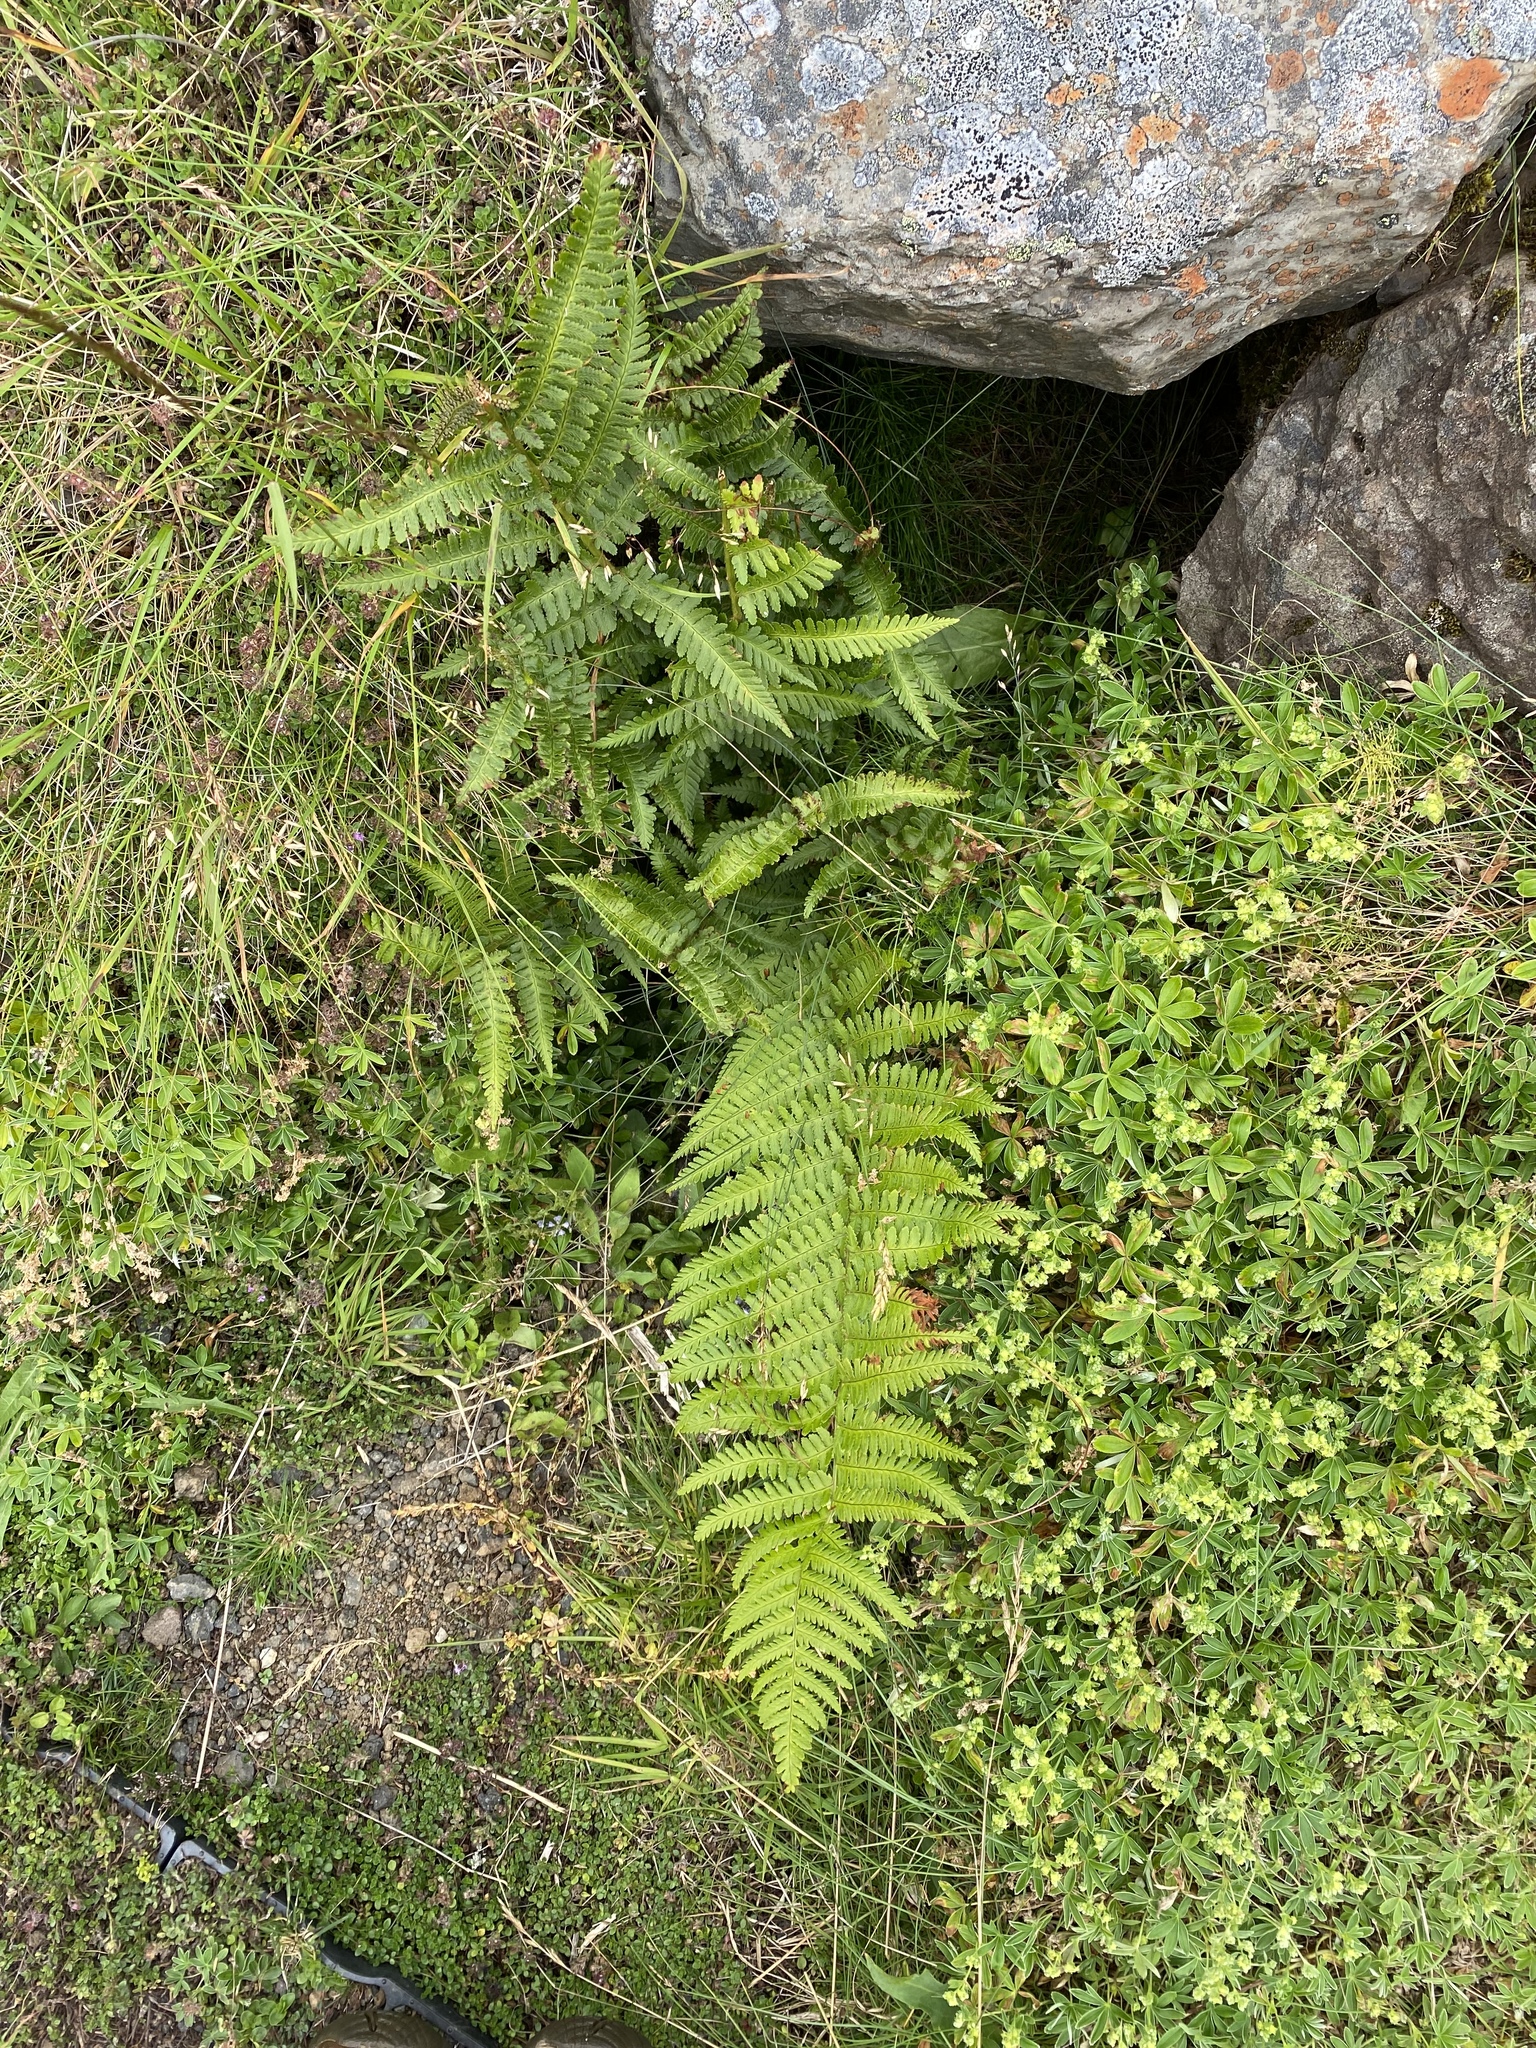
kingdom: Plantae
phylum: Tracheophyta
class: Polypodiopsida
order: Polypodiales
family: Dryopteridaceae
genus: Dryopteris
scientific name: Dryopteris filix-mas
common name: Male fern
